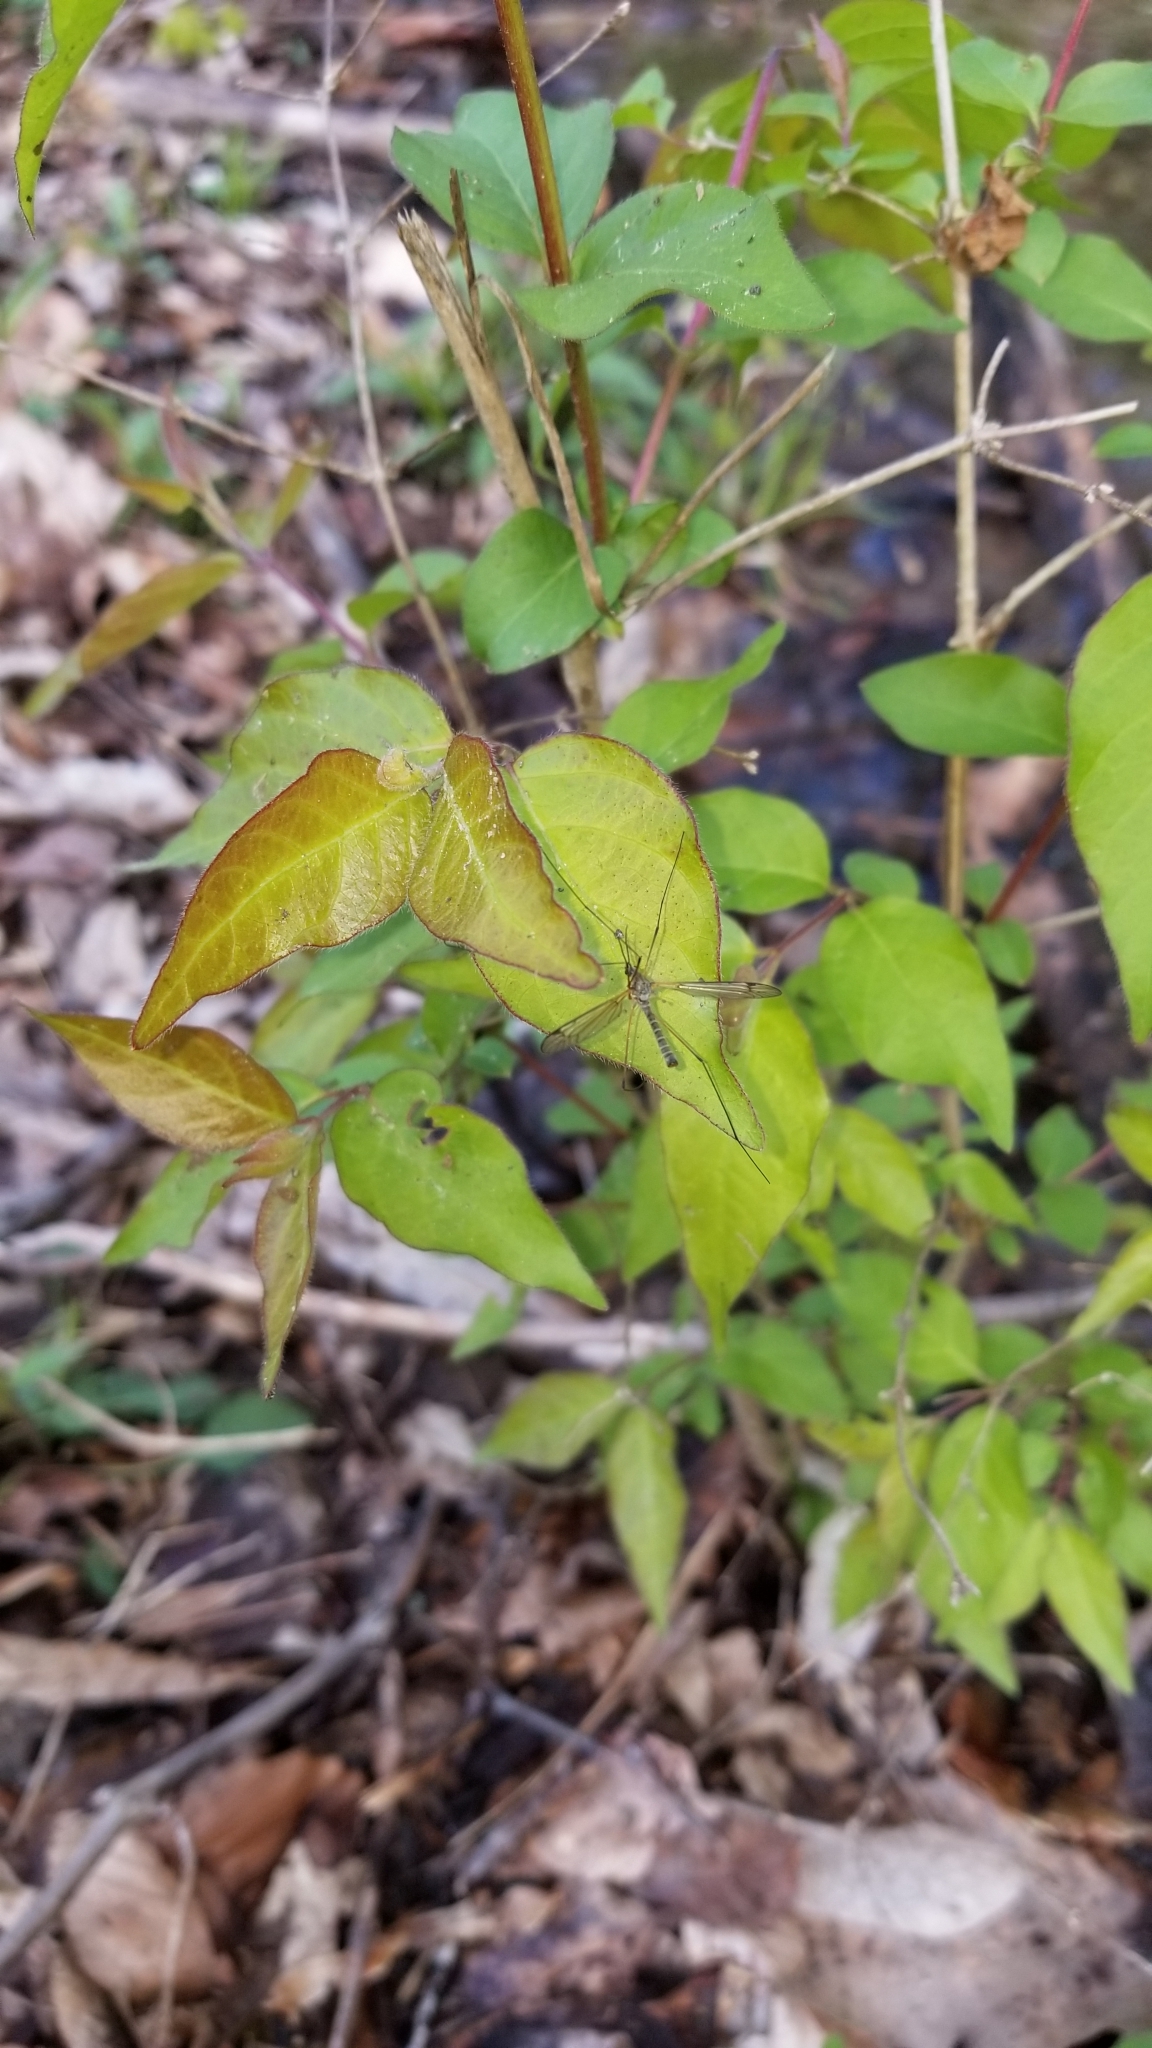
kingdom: Plantae
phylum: Tracheophyta
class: Magnoliopsida
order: Dipsacales
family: Caprifoliaceae
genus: Lonicera
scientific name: Lonicera maackii
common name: Amur honeysuckle
